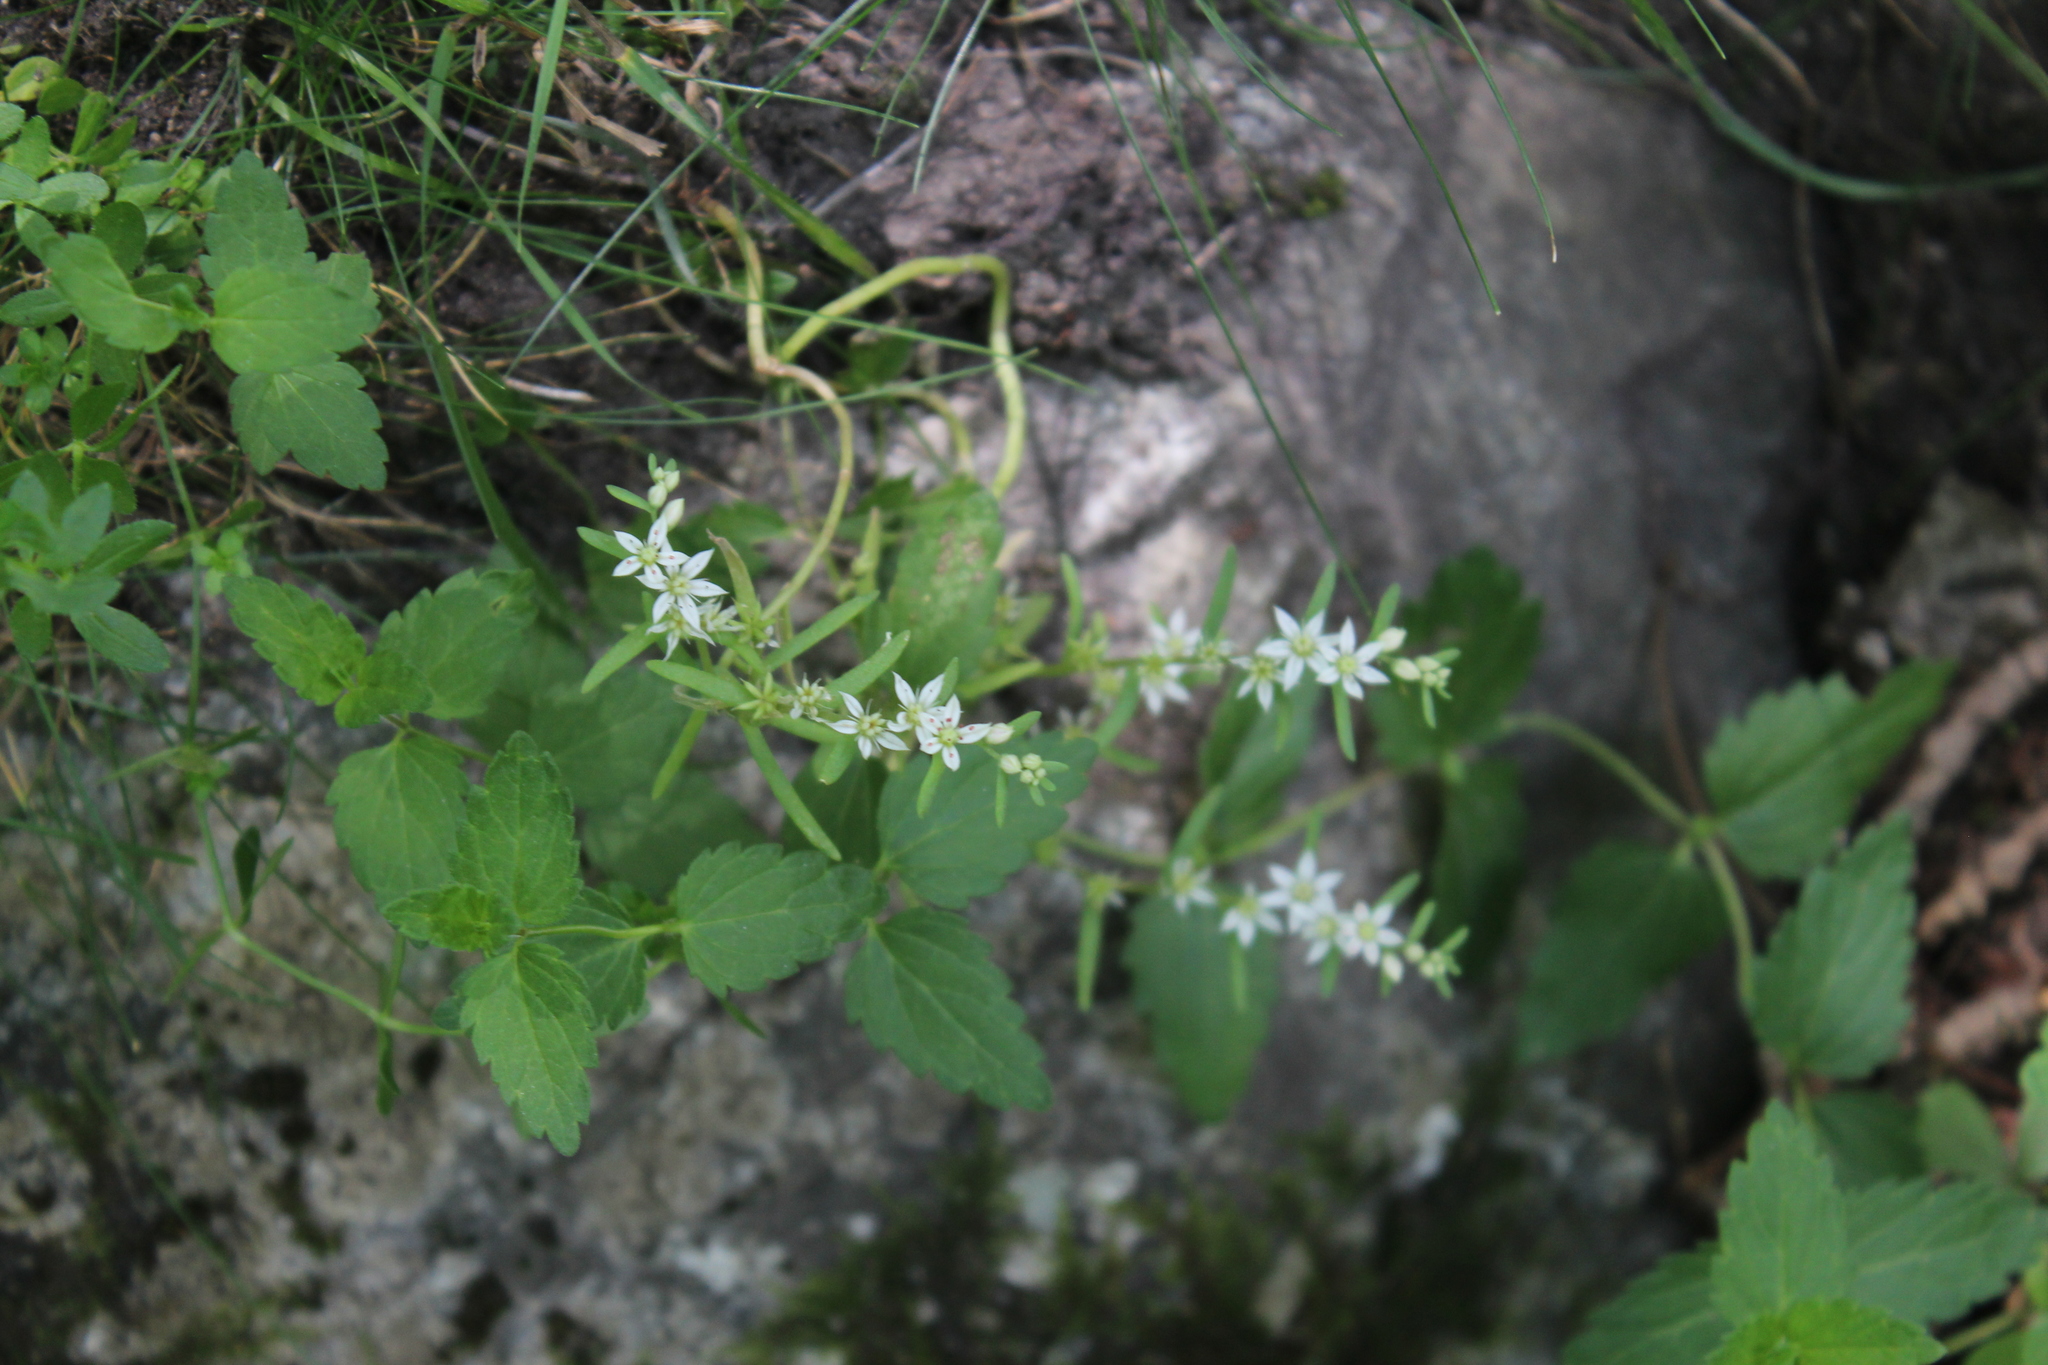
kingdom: Plantae
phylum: Tracheophyta
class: Magnoliopsida
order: Saxifragales
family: Crassulaceae
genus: Sedum
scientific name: Sedum hispanicum
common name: Spanish stonecrop
